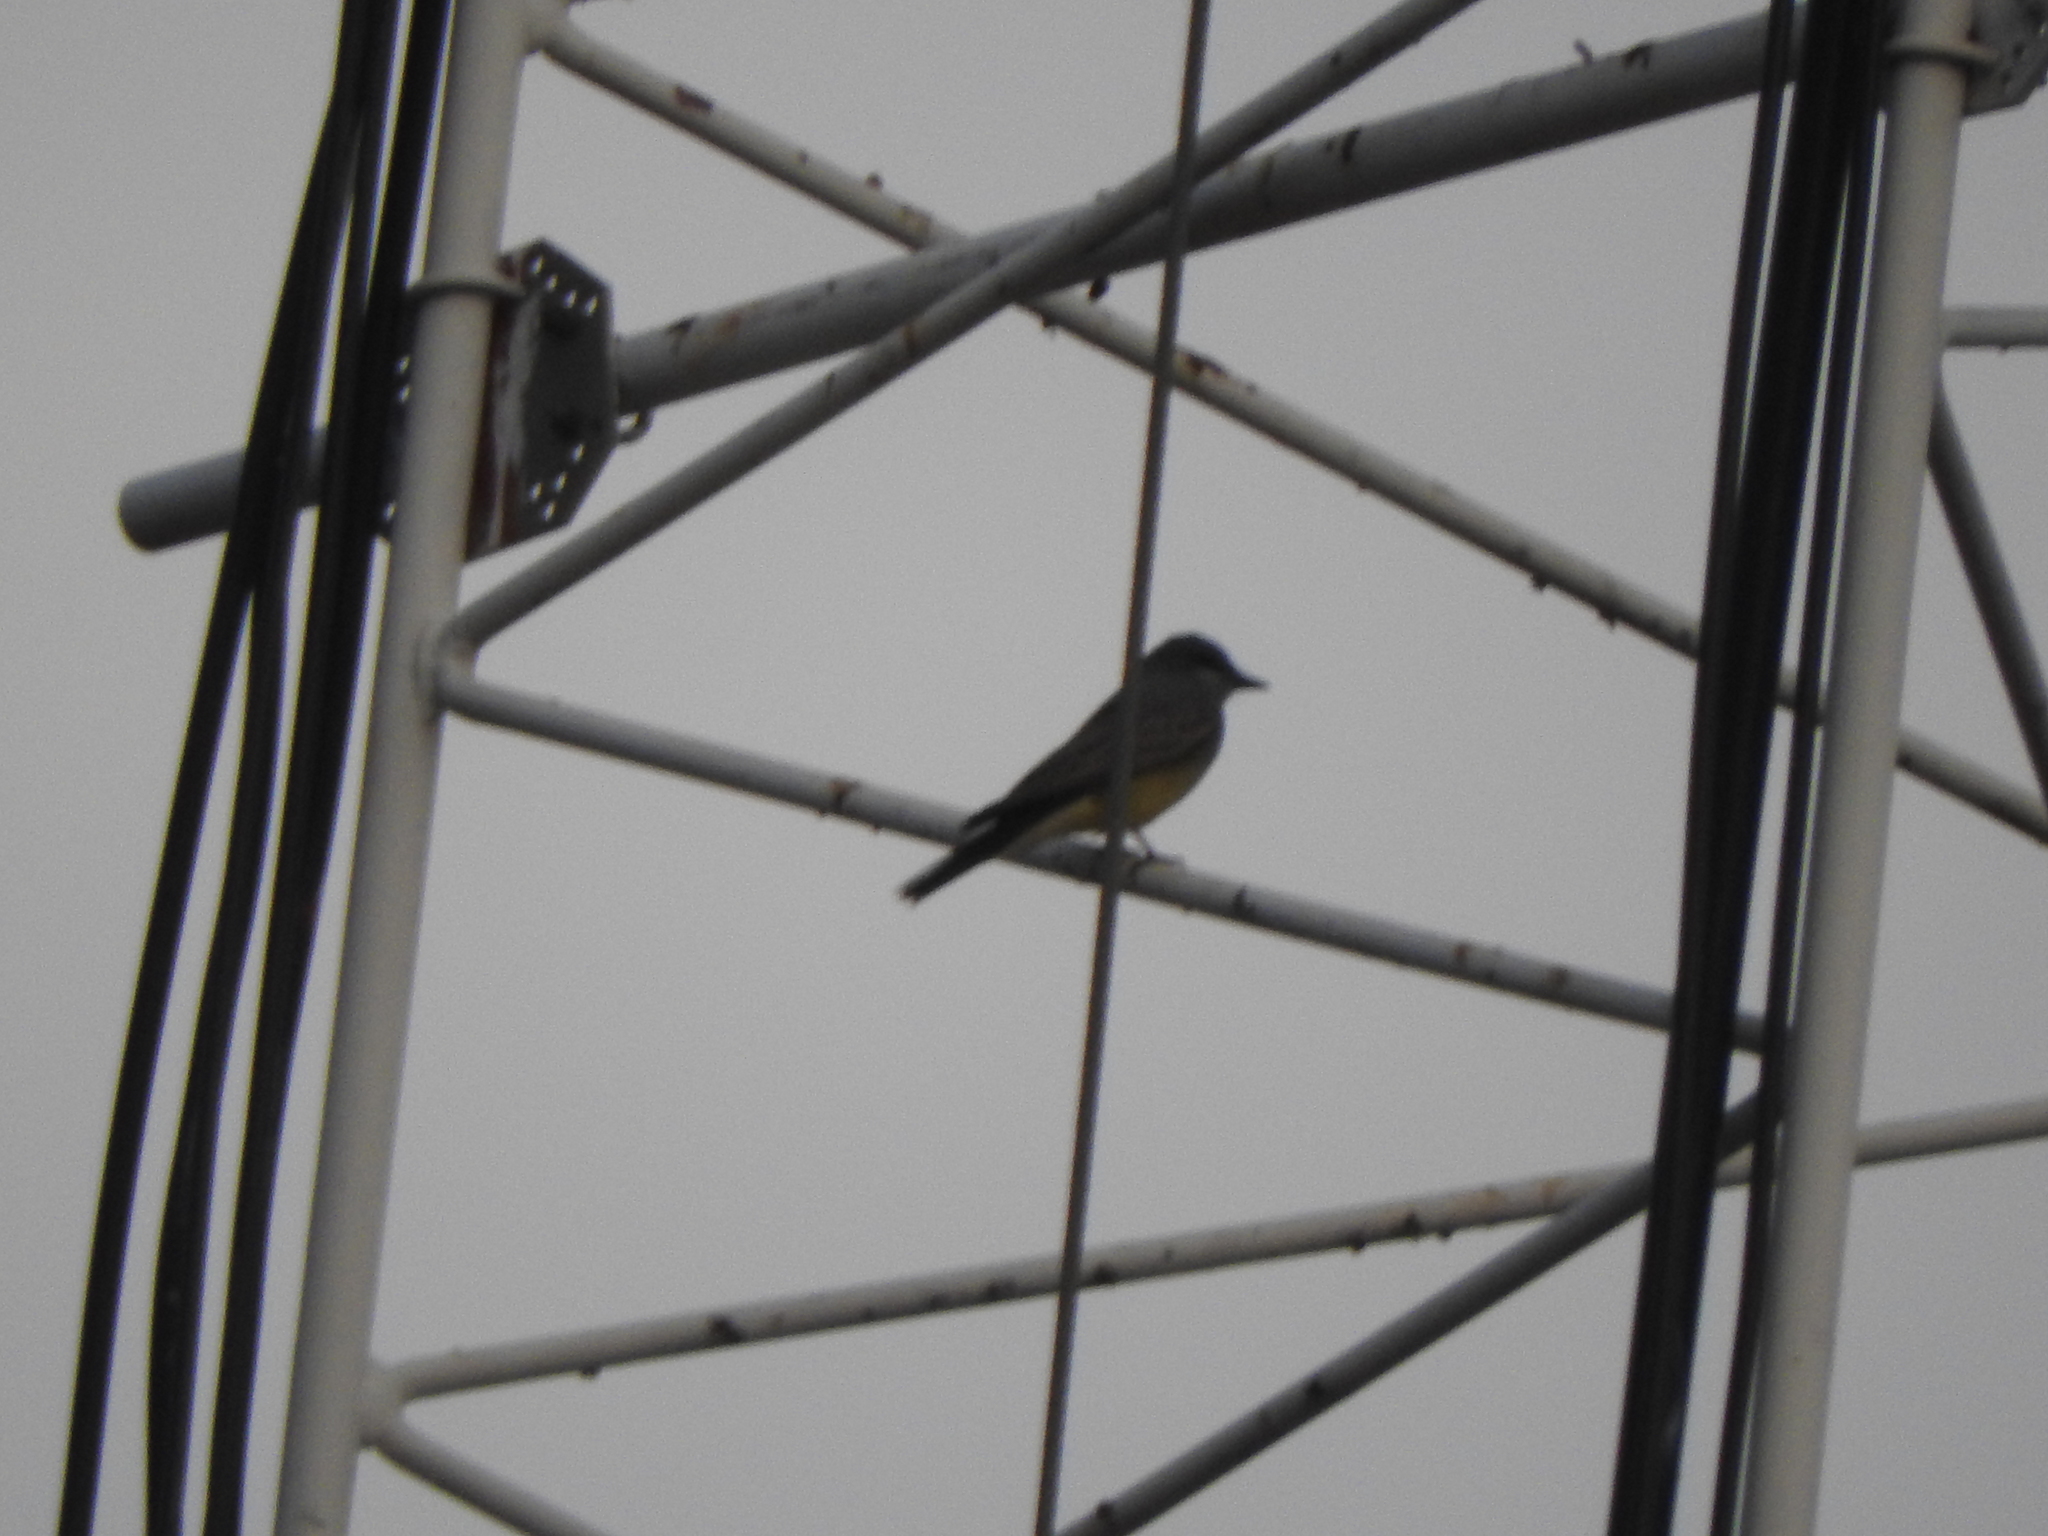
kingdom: Animalia
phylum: Chordata
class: Aves
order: Passeriformes
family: Tyrannidae
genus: Tyrannus
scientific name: Tyrannus vociferans
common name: Cassin's kingbird
